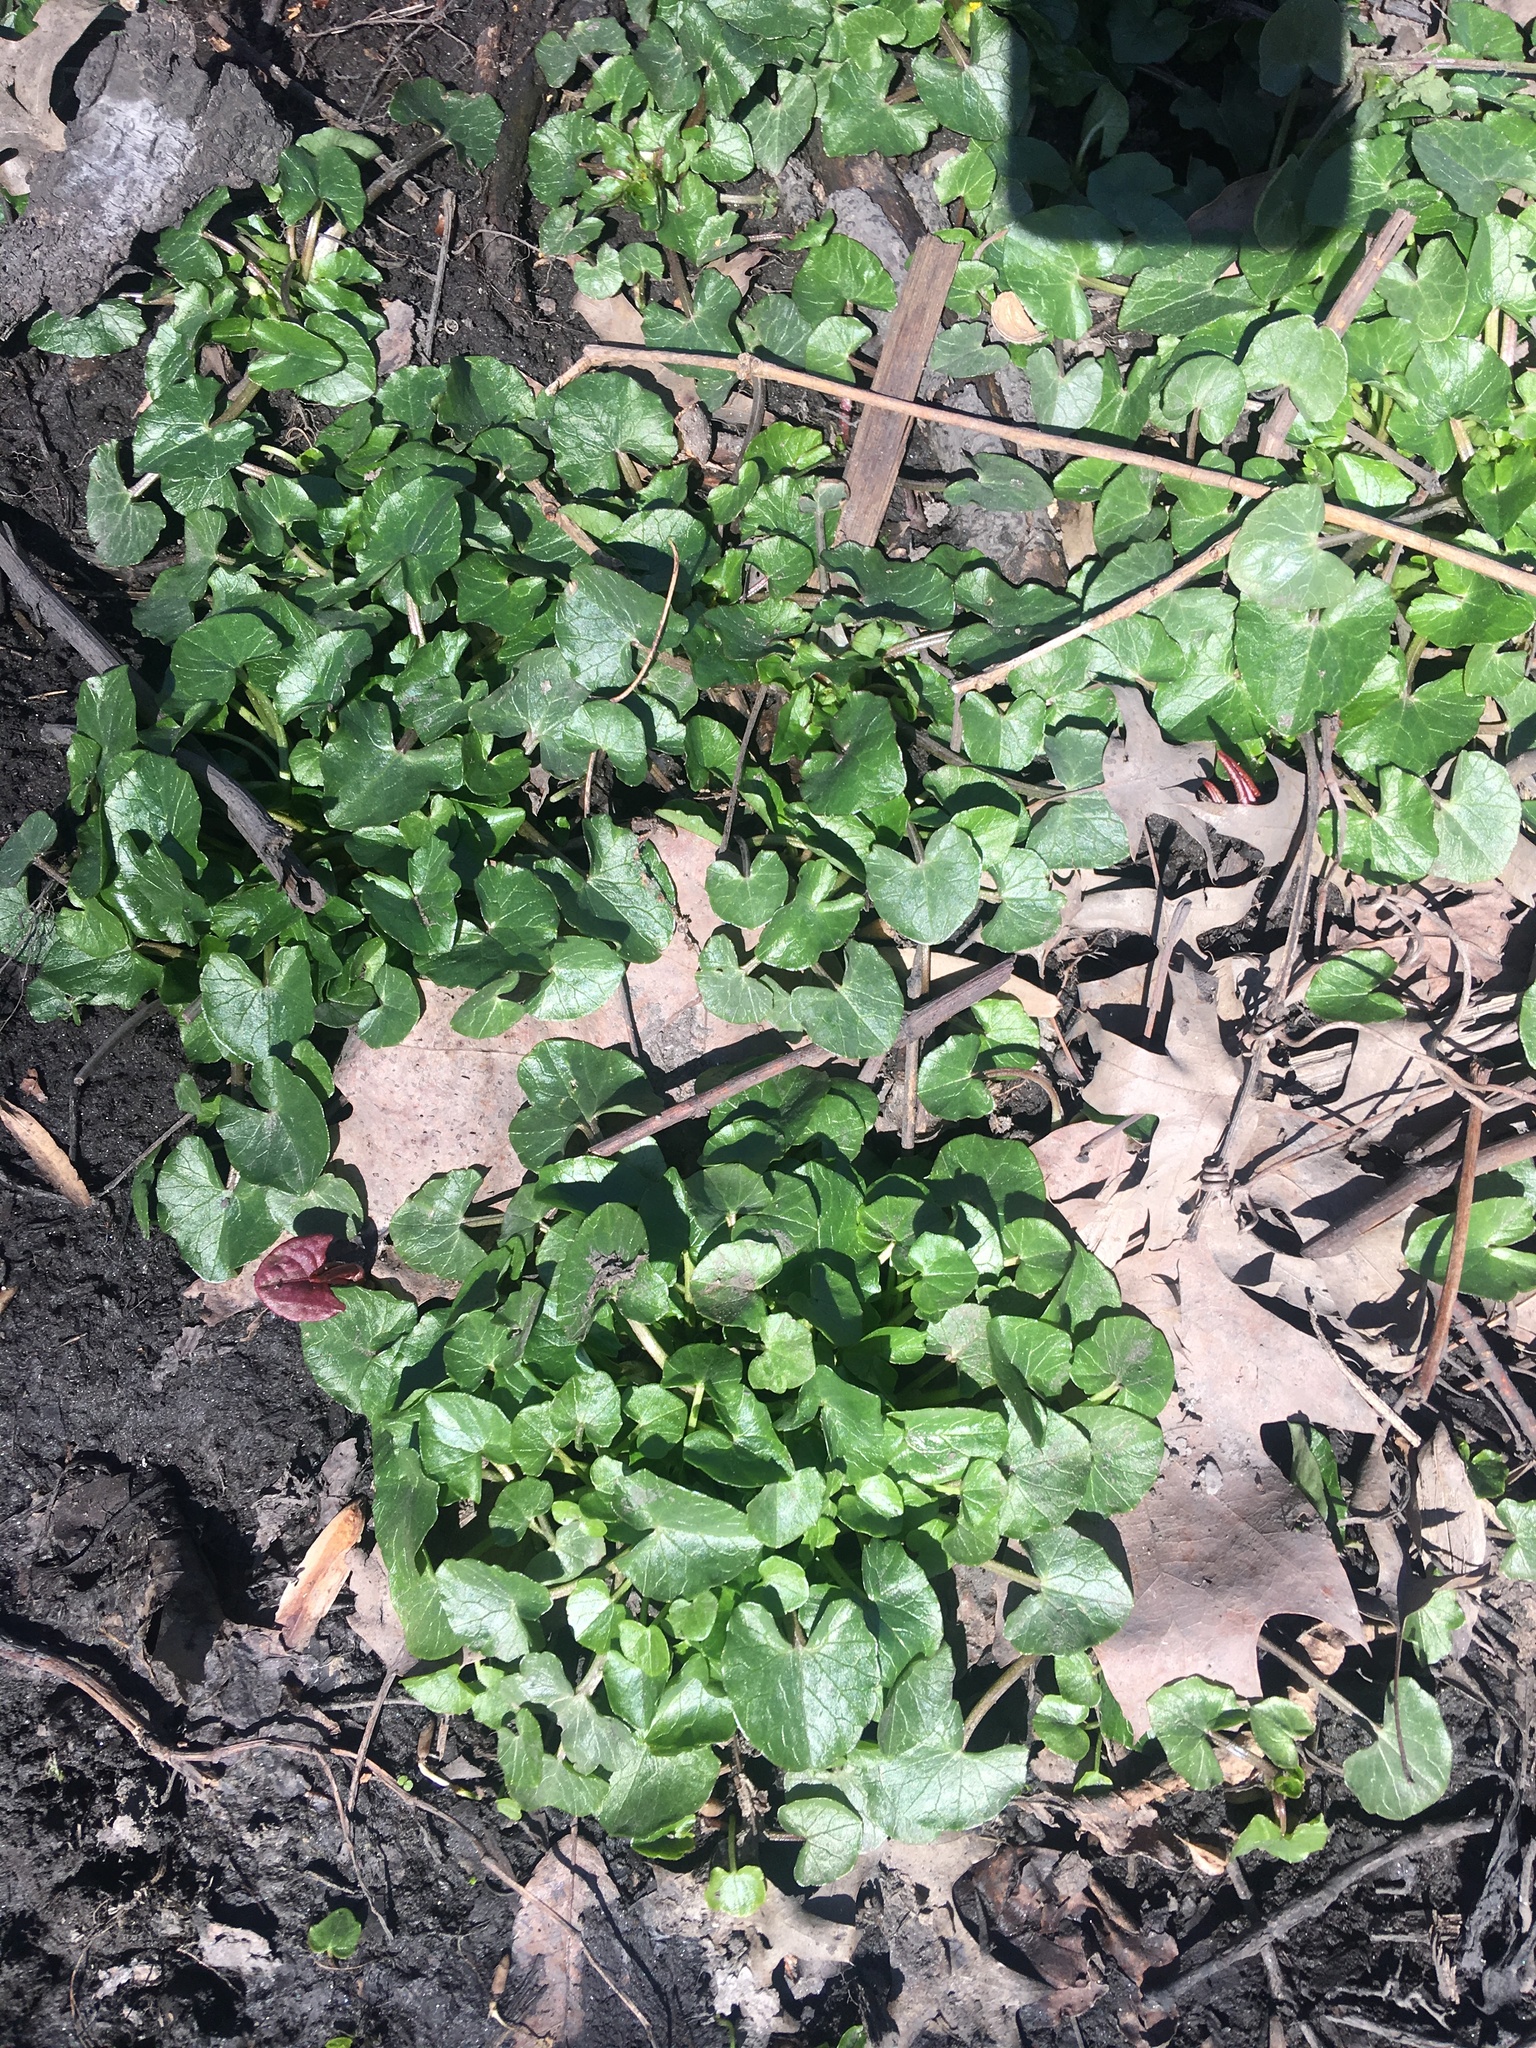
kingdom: Plantae
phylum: Tracheophyta
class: Magnoliopsida
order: Ranunculales
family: Ranunculaceae
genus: Ficaria
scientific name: Ficaria verna
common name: Lesser celandine
